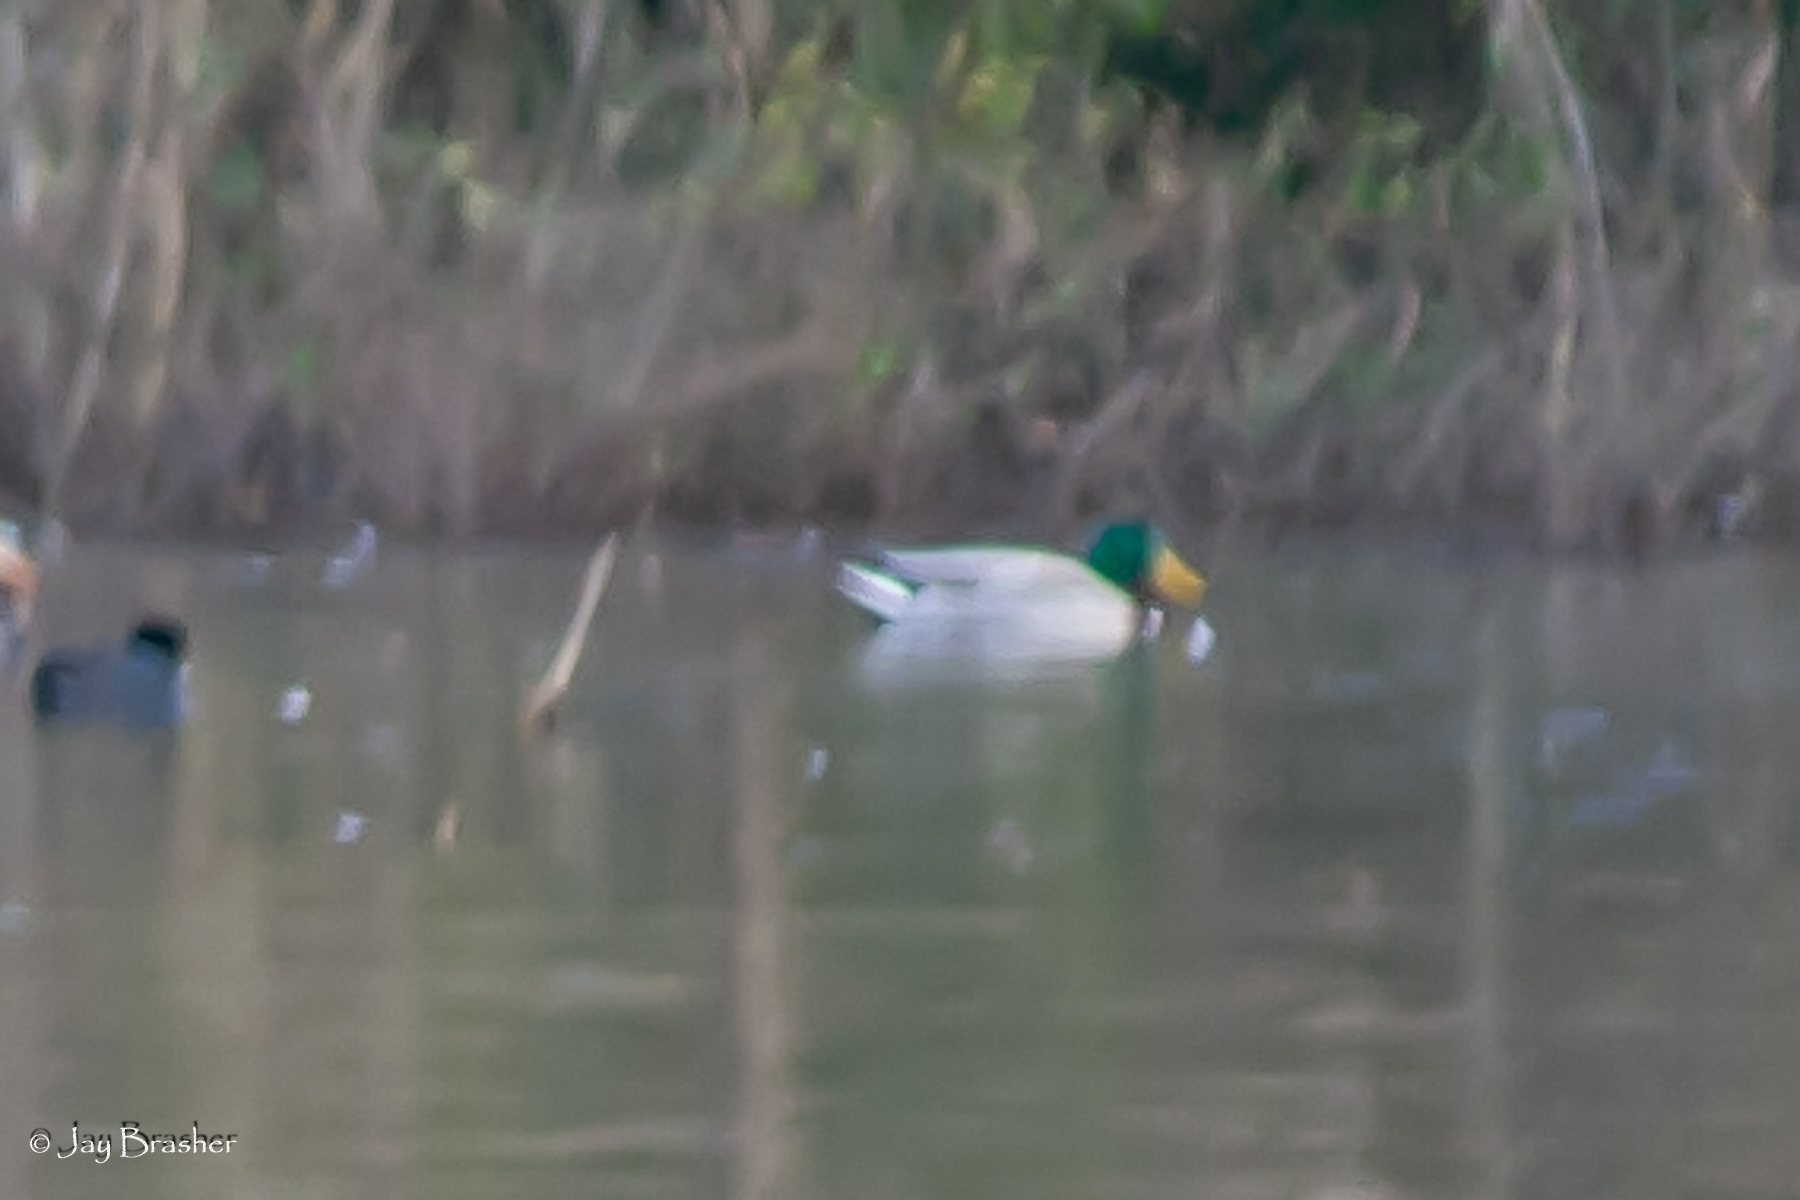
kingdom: Animalia
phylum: Chordata
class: Aves
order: Anseriformes
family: Anatidae
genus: Anas
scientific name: Anas platyrhynchos
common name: Mallard
